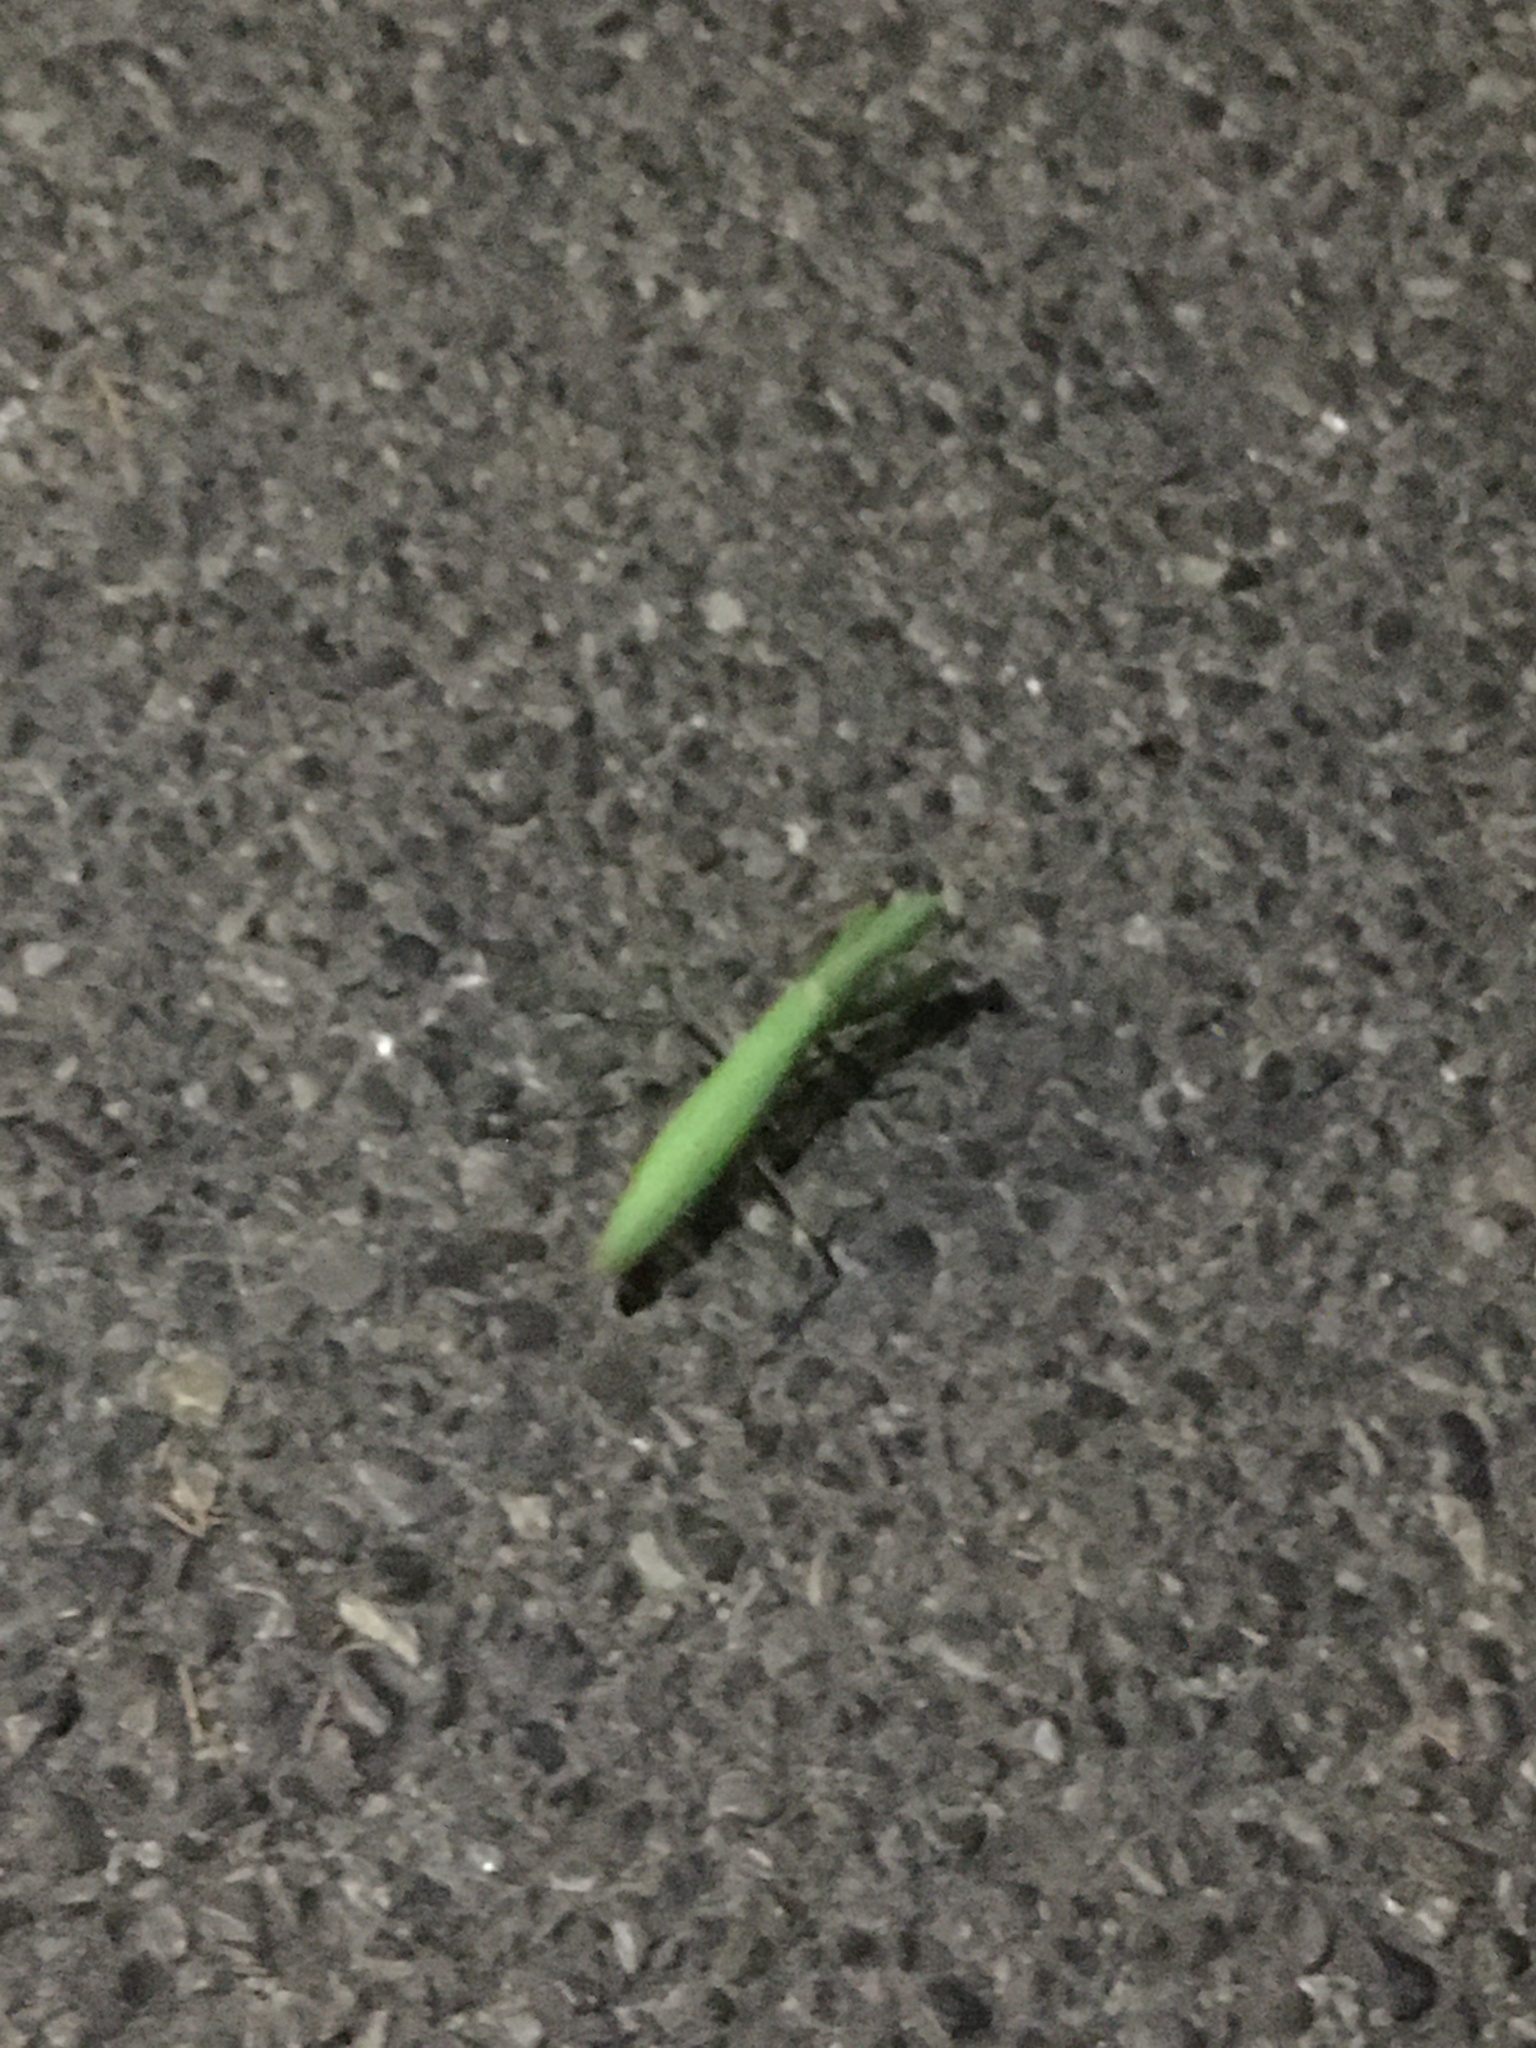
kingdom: Animalia
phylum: Arthropoda
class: Insecta
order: Mantodea
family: Mantidae
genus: Mantis
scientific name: Mantis religiosa
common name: Praying mantis
